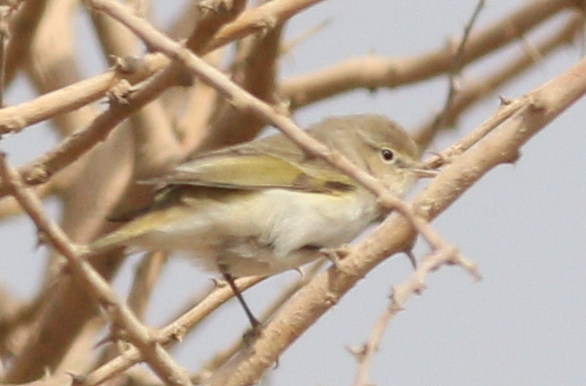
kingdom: Animalia
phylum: Chordata
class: Aves
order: Passeriformes
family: Phylloscopidae
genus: Phylloscopus
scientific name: Phylloscopus orientalis
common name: Eastern bonelli's warbler
